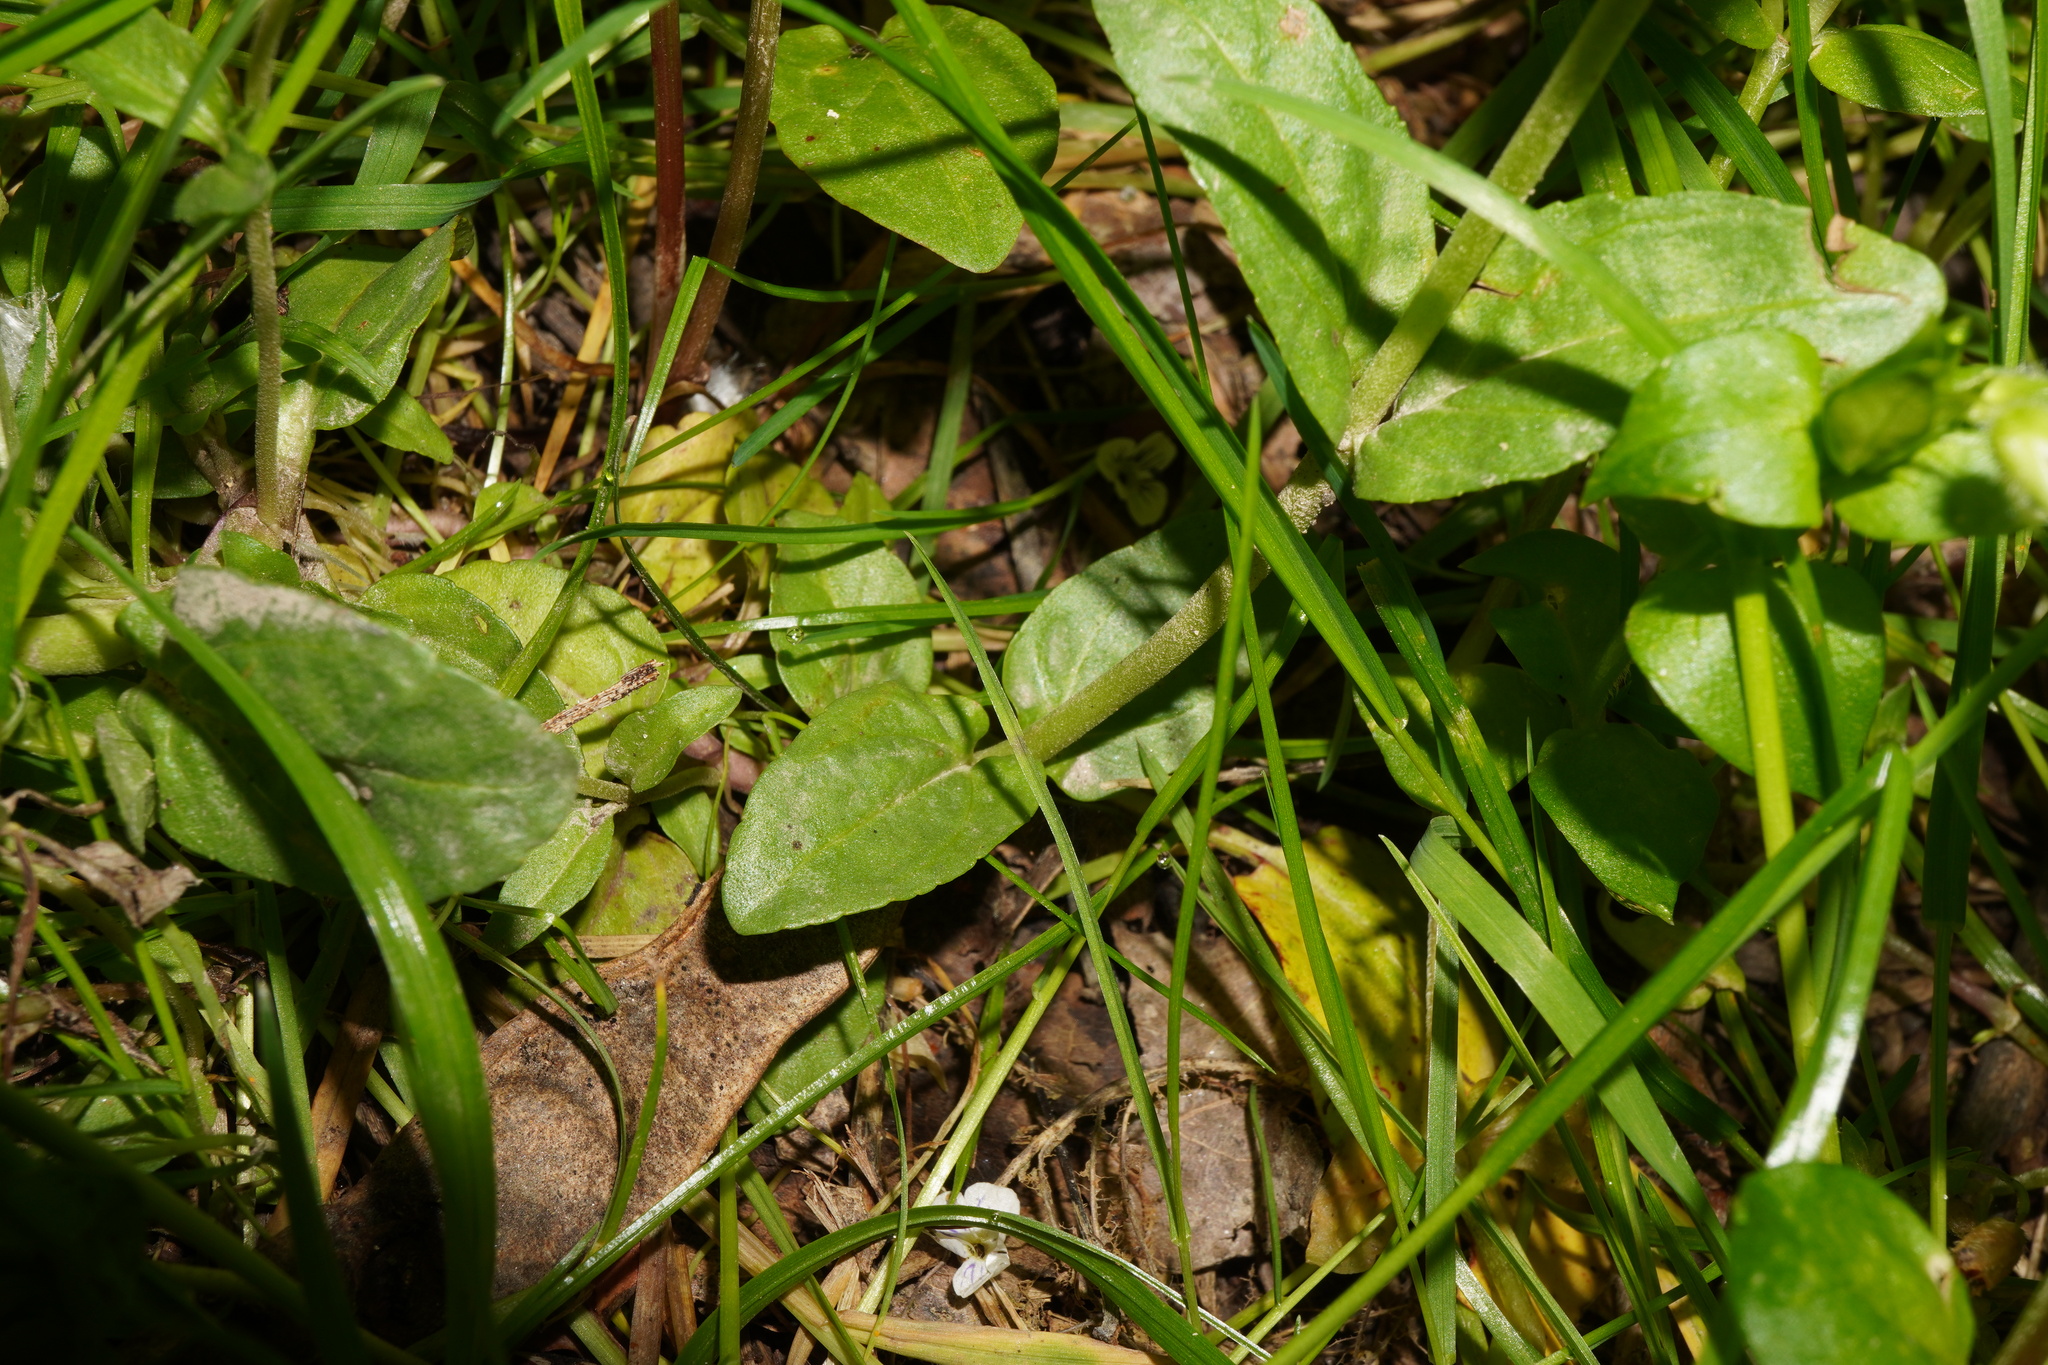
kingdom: Plantae
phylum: Tracheophyta
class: Magnoliopsida
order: Lamiales
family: Plantaginaceae
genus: Veronica
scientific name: Veronica serpyllifolia
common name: Thyme-leaved speedwell
